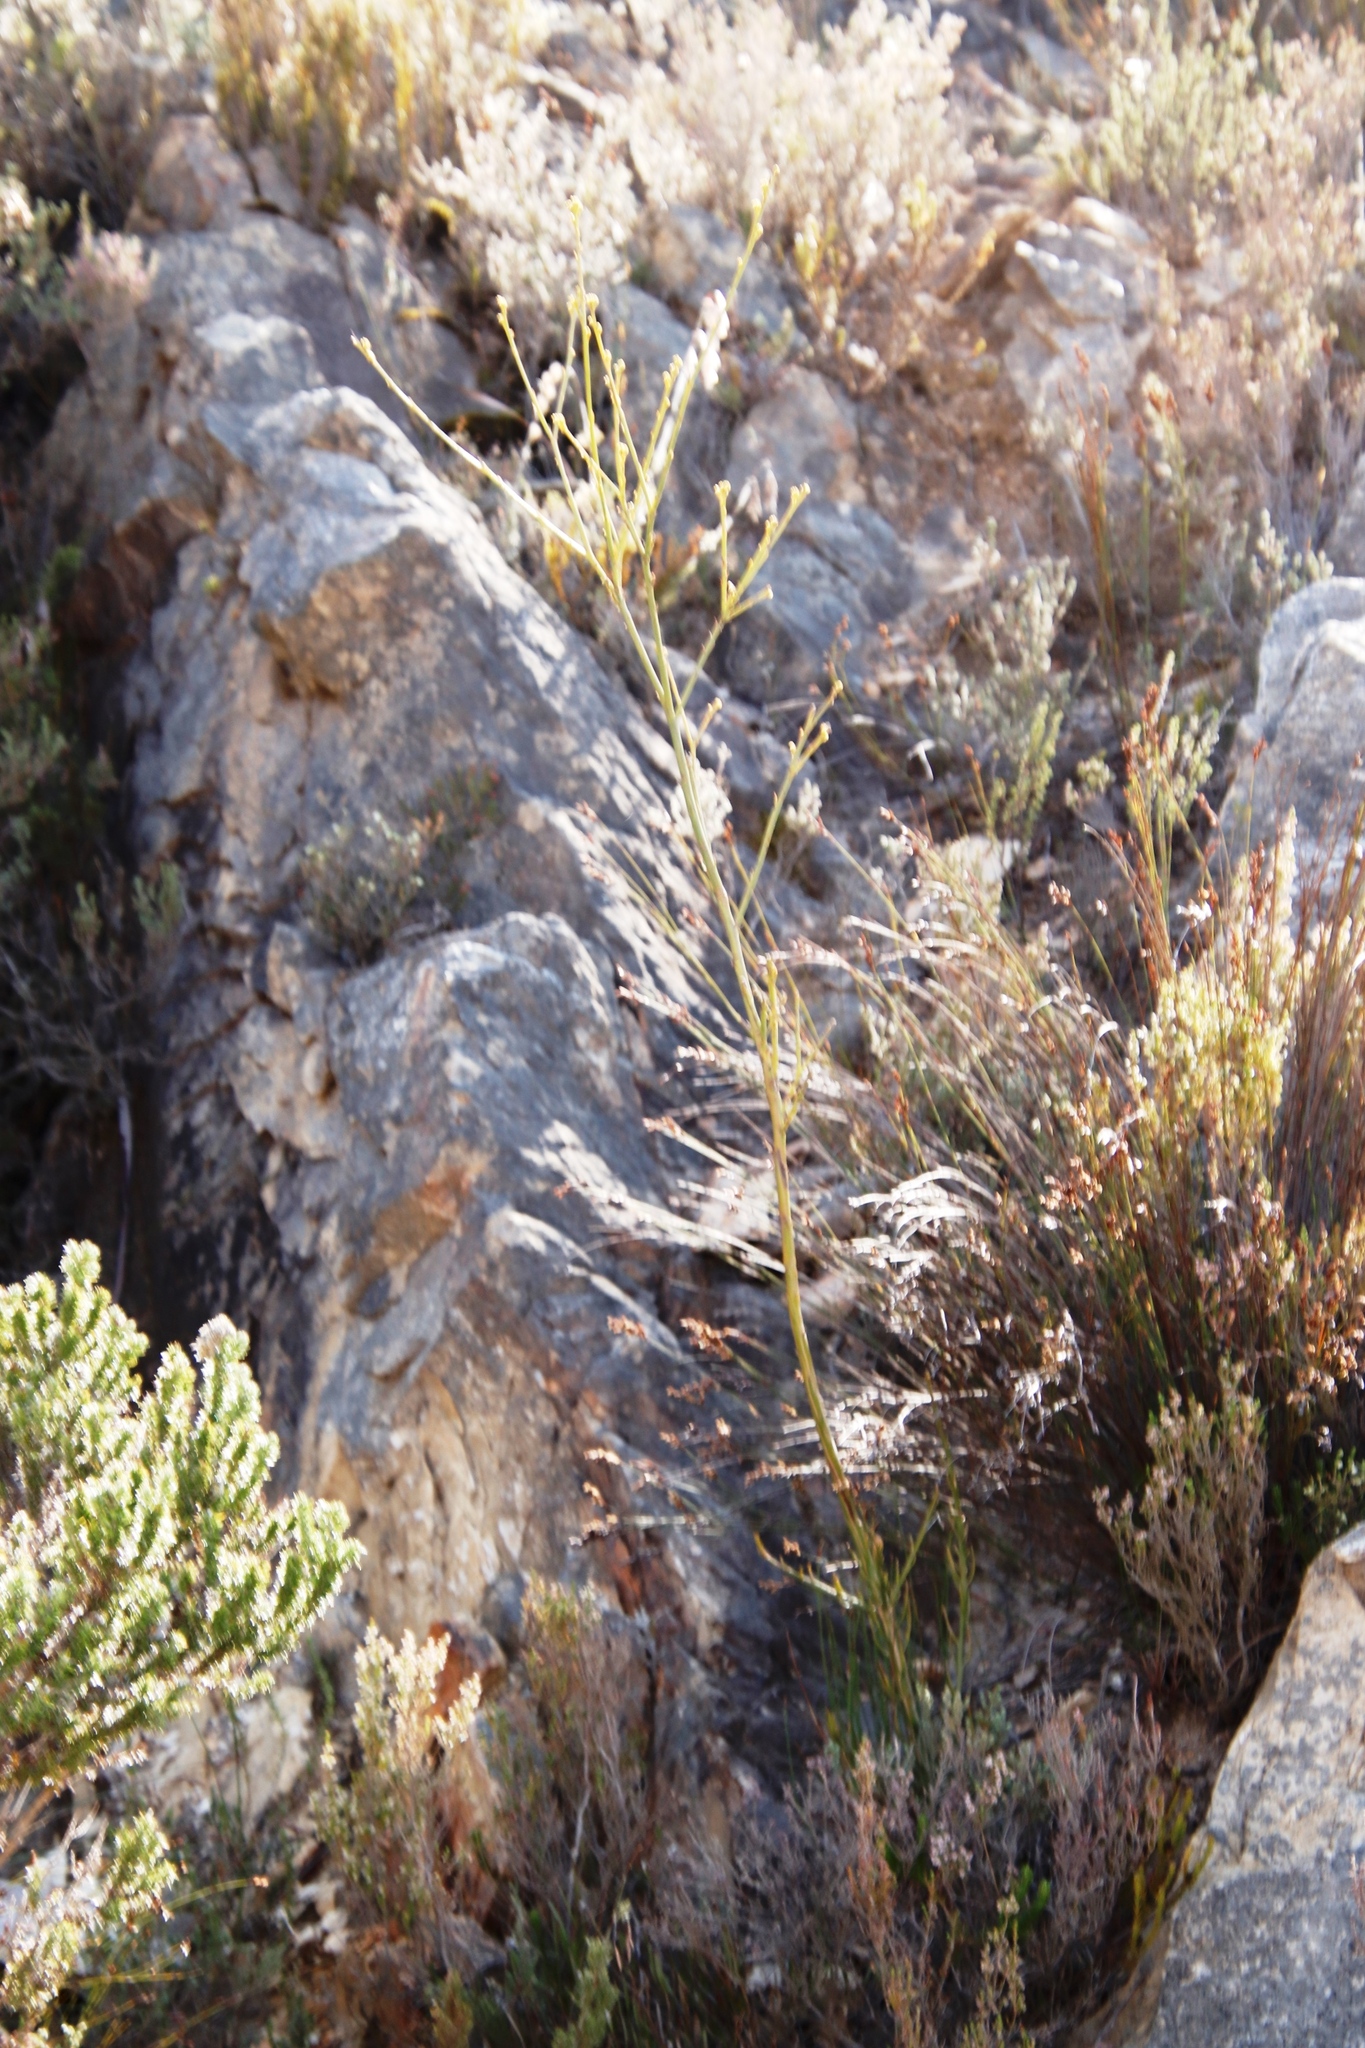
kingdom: Plantae
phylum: Tracheophyta
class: Magnoliopsida
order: Santalales
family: Thesiaceae
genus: Thesium
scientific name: Thesium strictum
